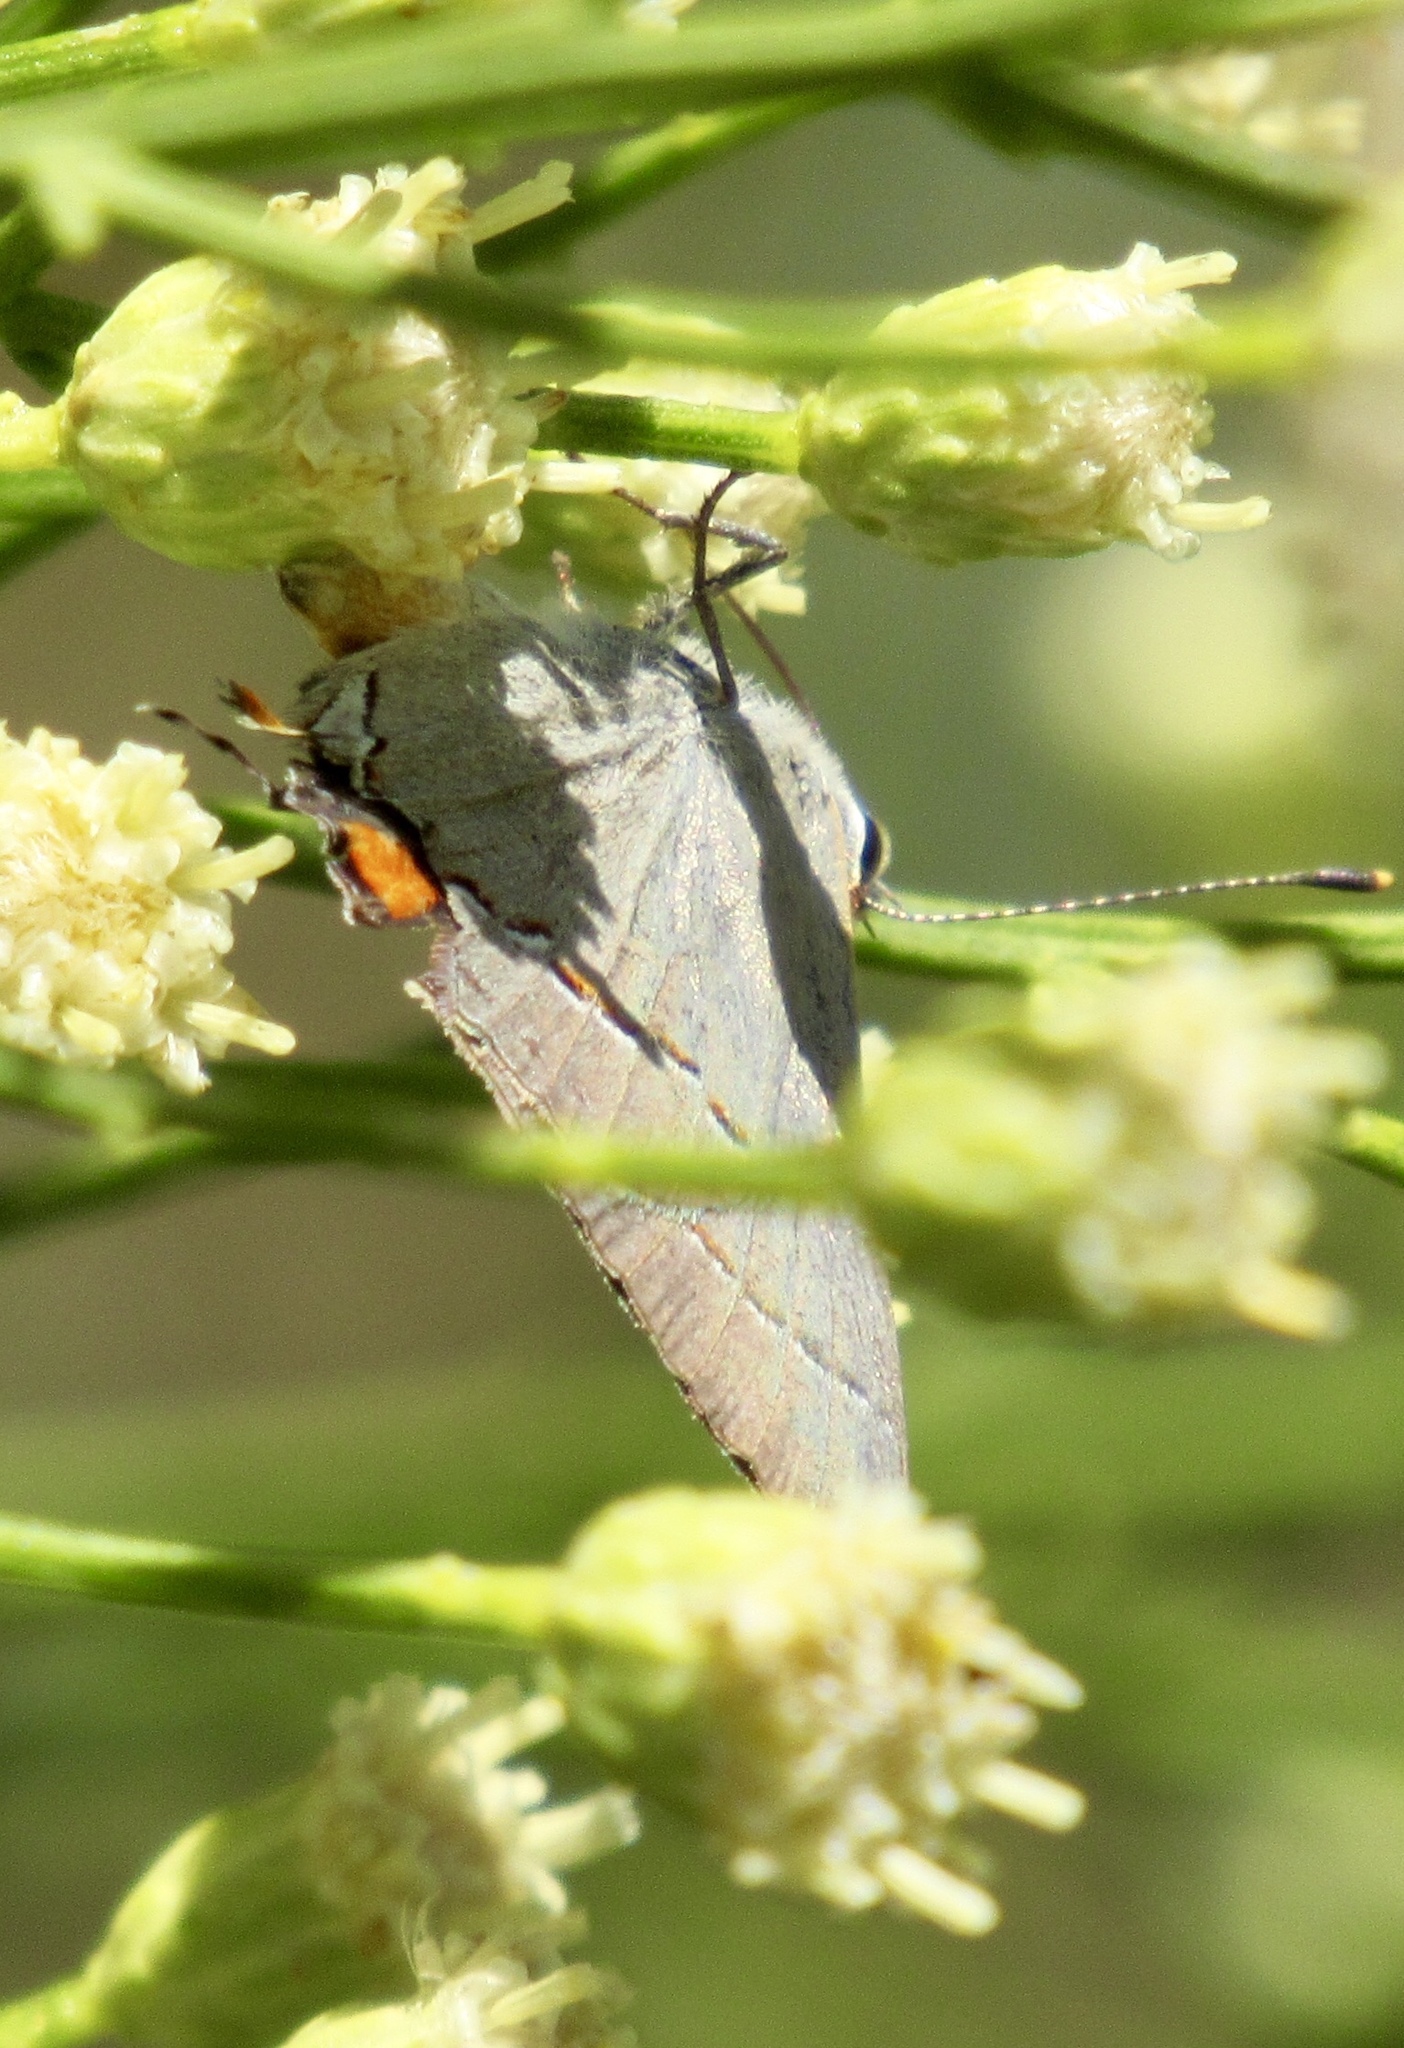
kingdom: Animalia
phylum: Arthropoda
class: Insecta
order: Lepidoptera
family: Lycaenidae
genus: Strymon
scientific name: Strymon melinus
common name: Gray hairstreak
